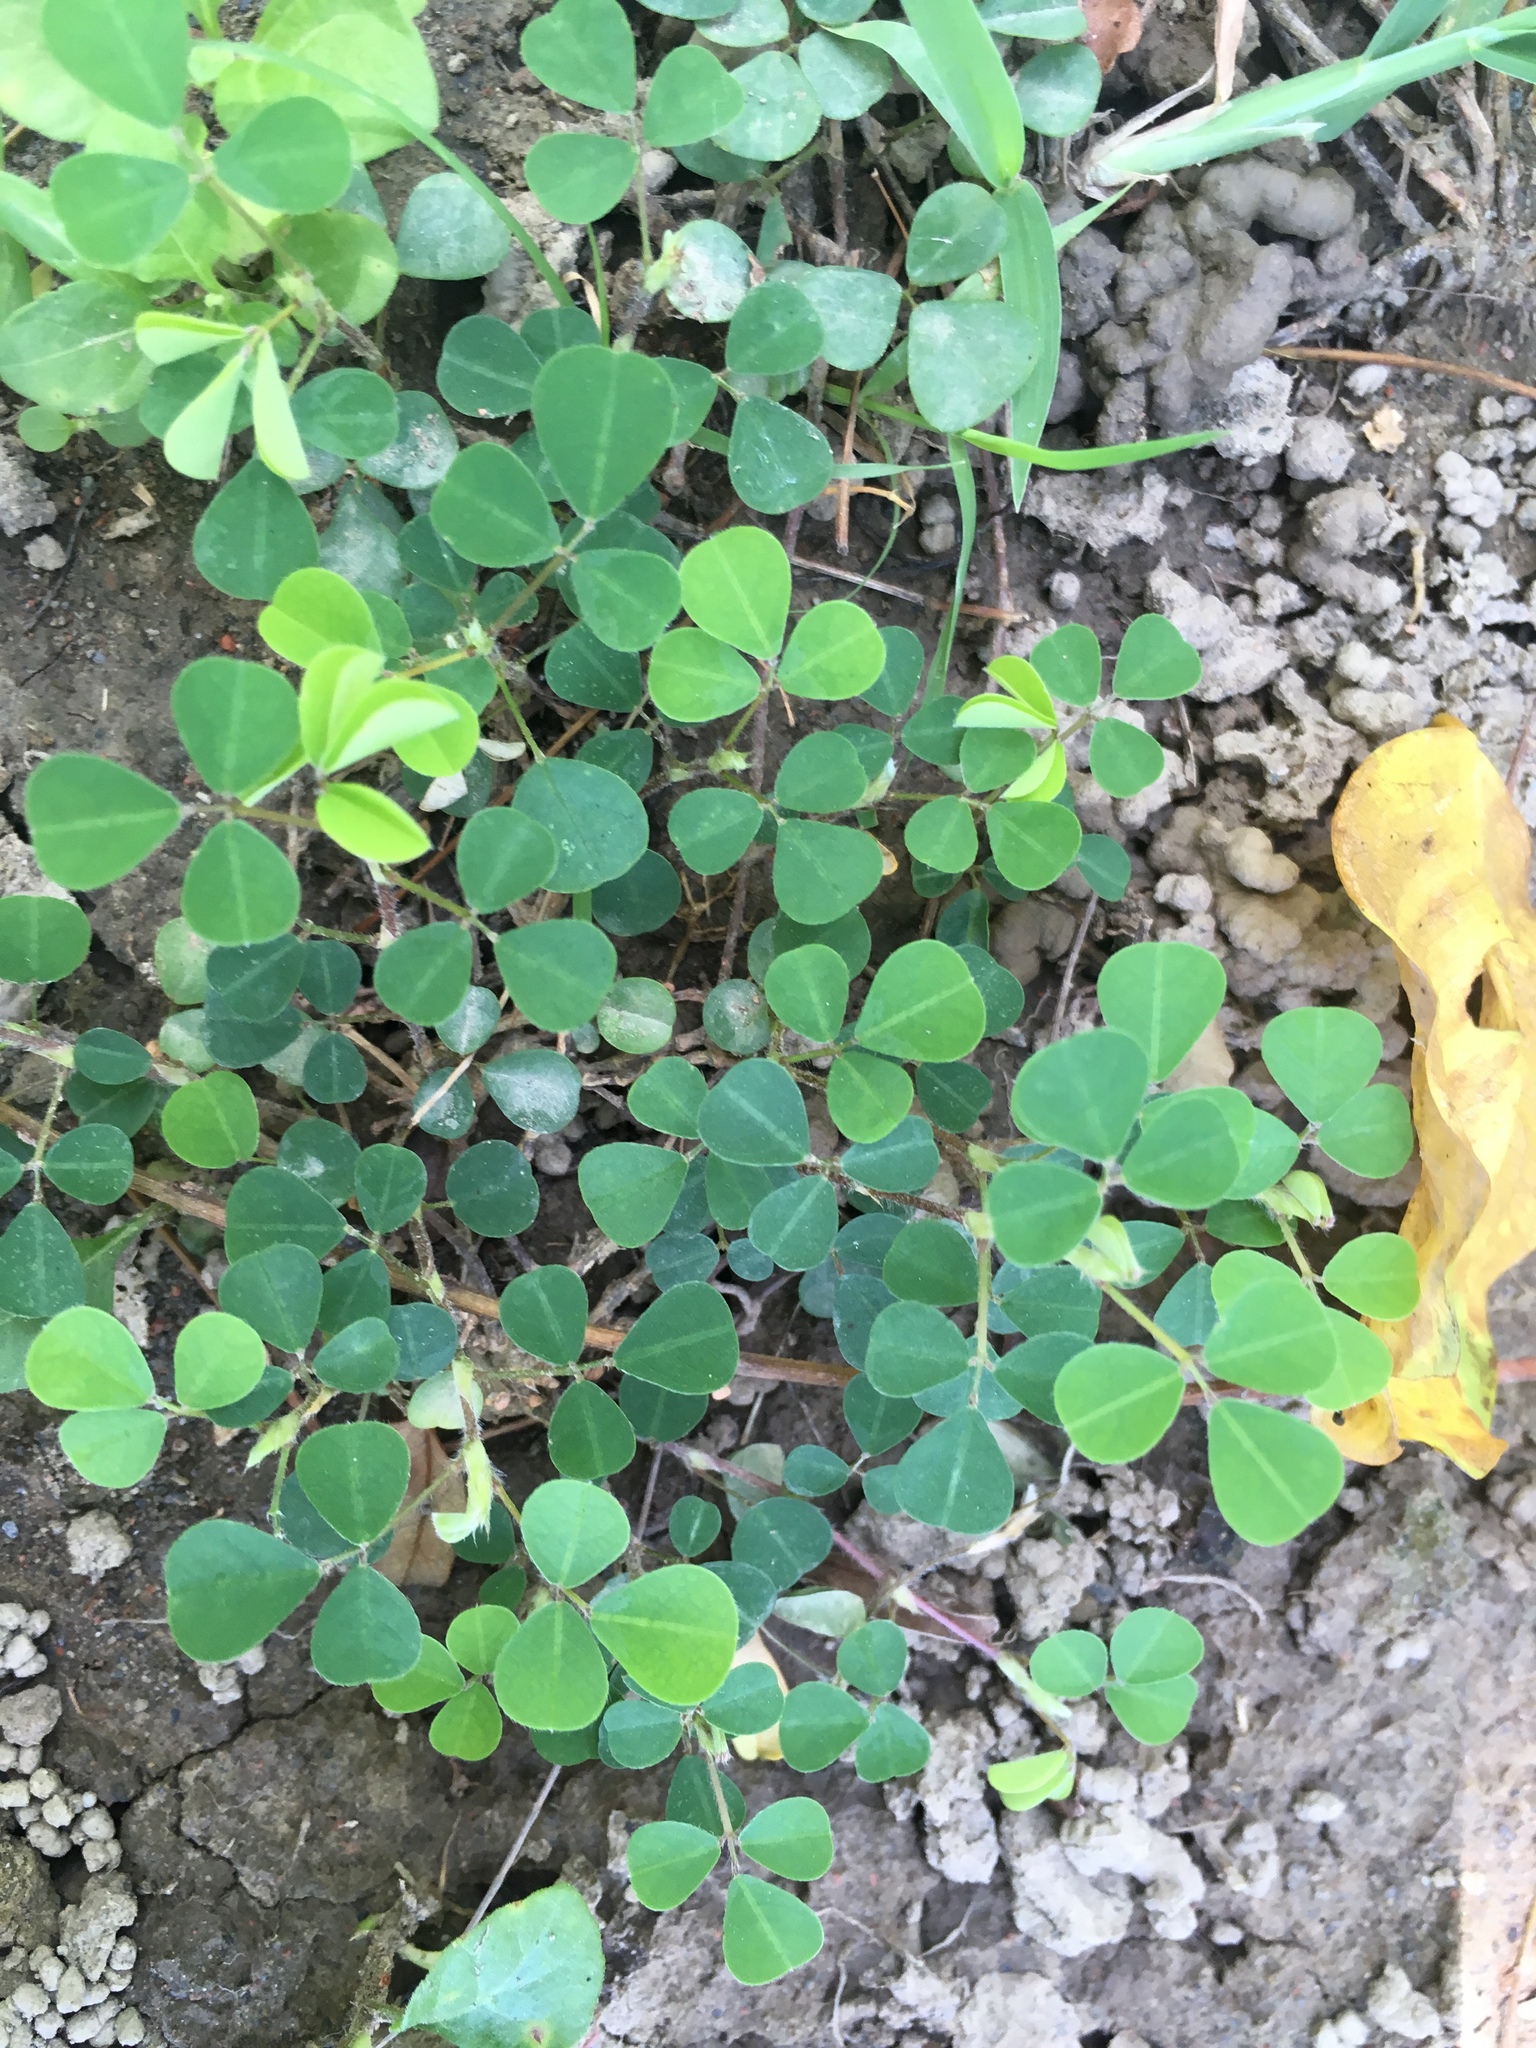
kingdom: Plantae
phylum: Tracheophyta
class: Magnoliopsida
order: Fabales
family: Fabaceae
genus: Grona
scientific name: Grona triflora
